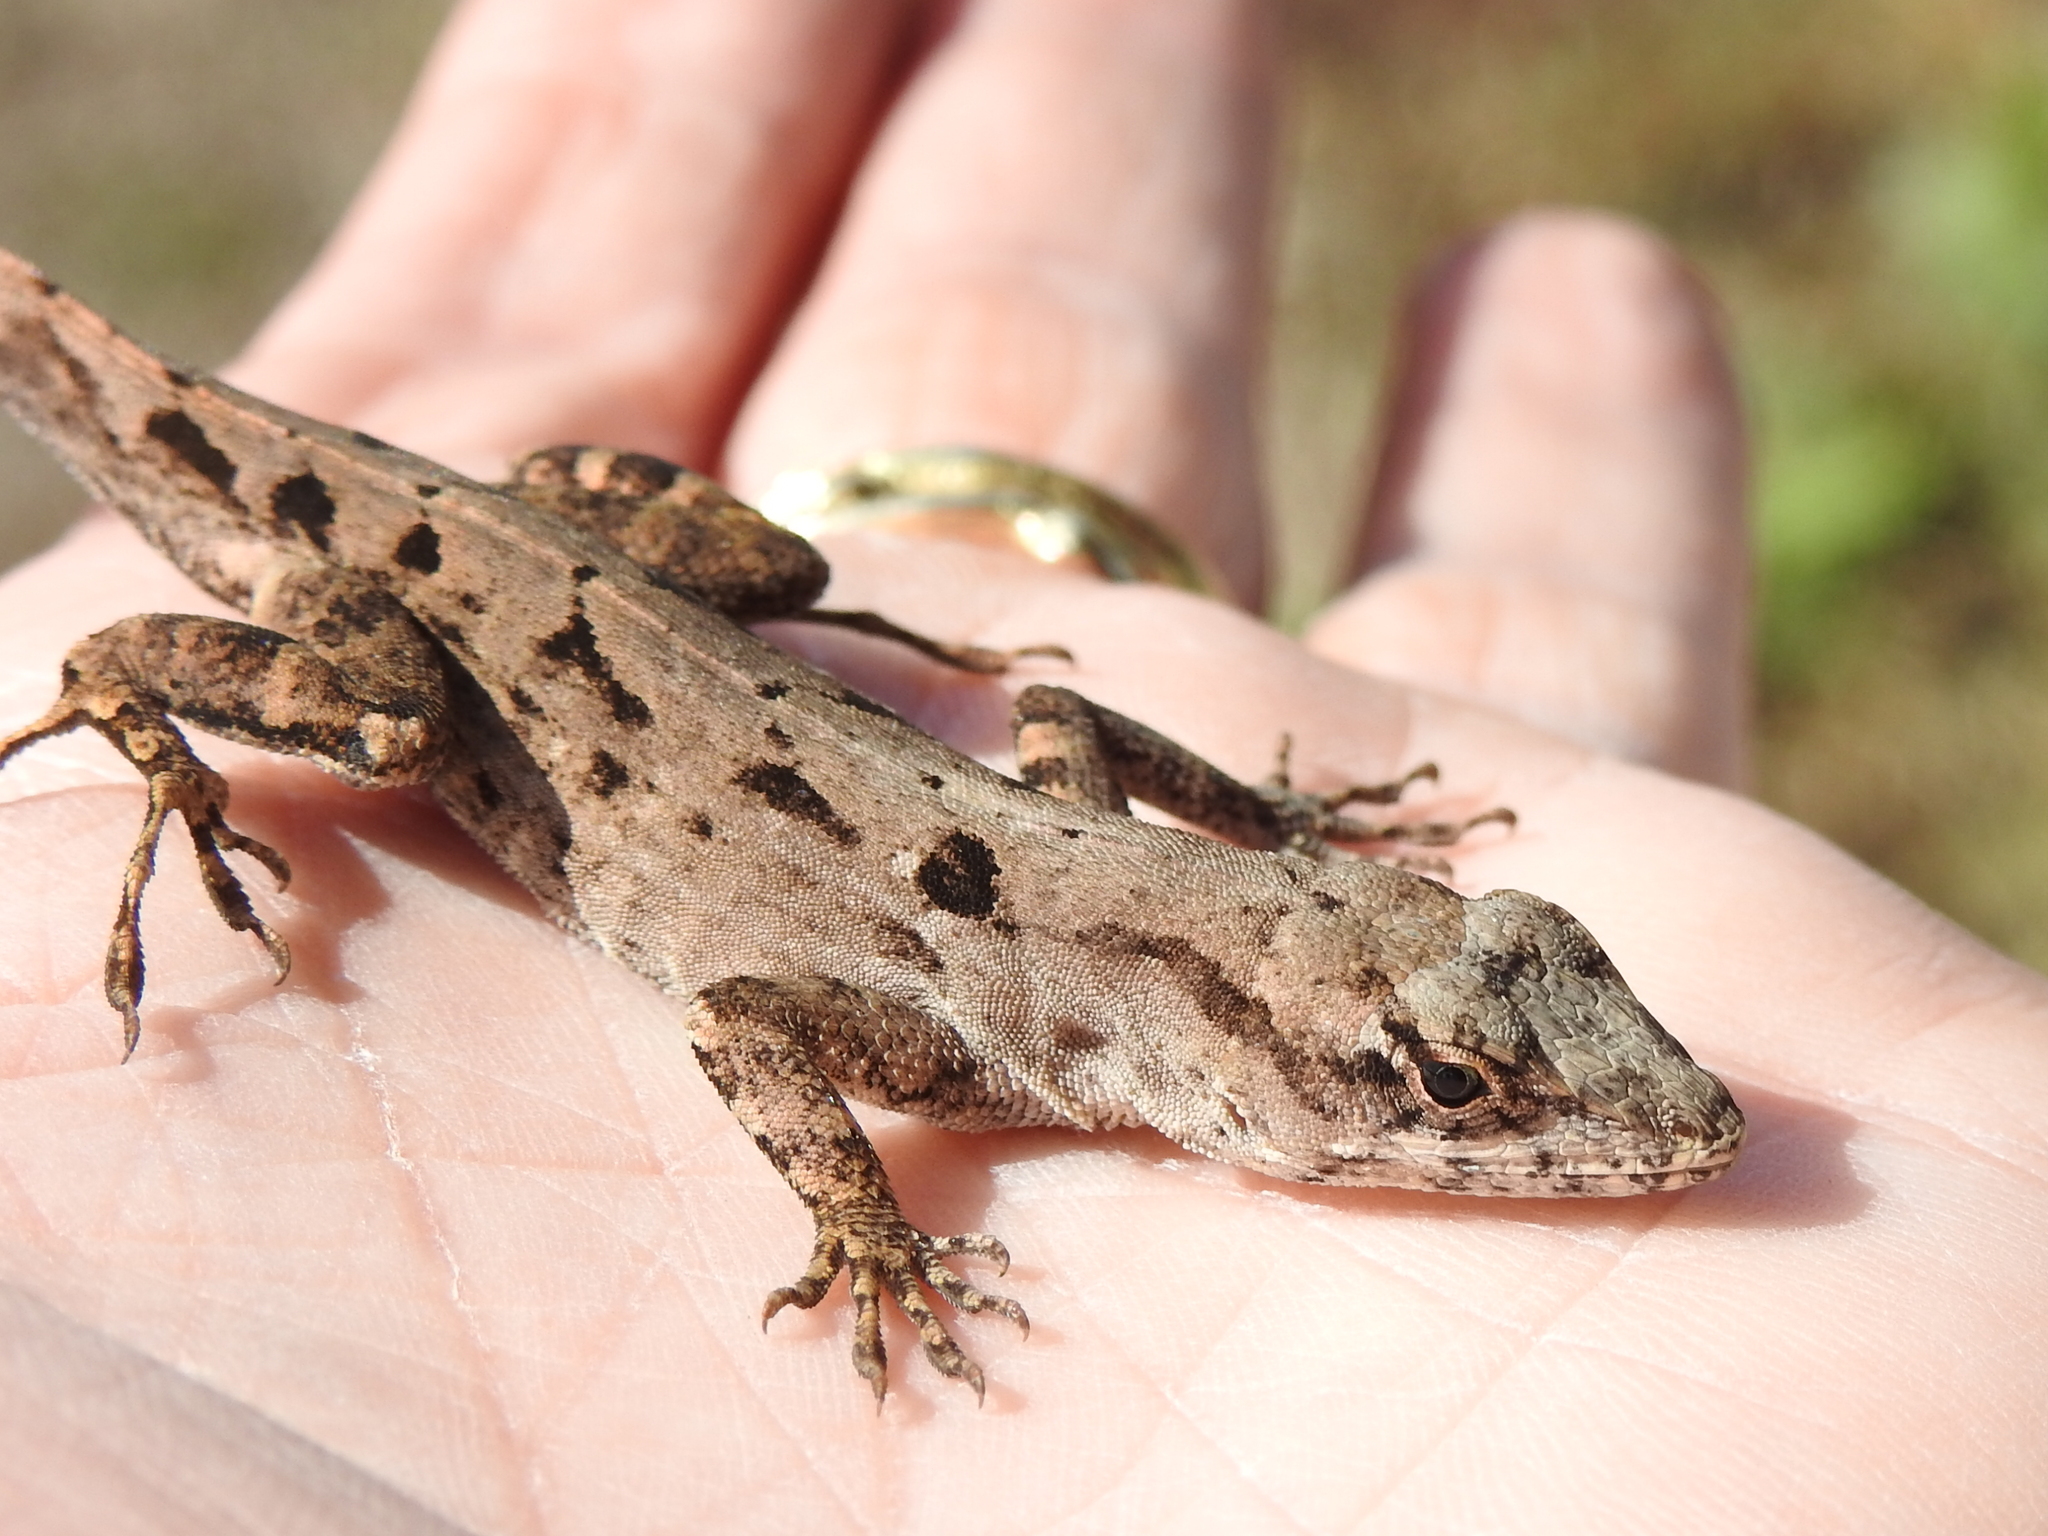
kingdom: Animalia
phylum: Chordata
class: Squamata
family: Dactyloidae
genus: Anolis
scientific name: Anolis sagrei
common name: Brown anole
